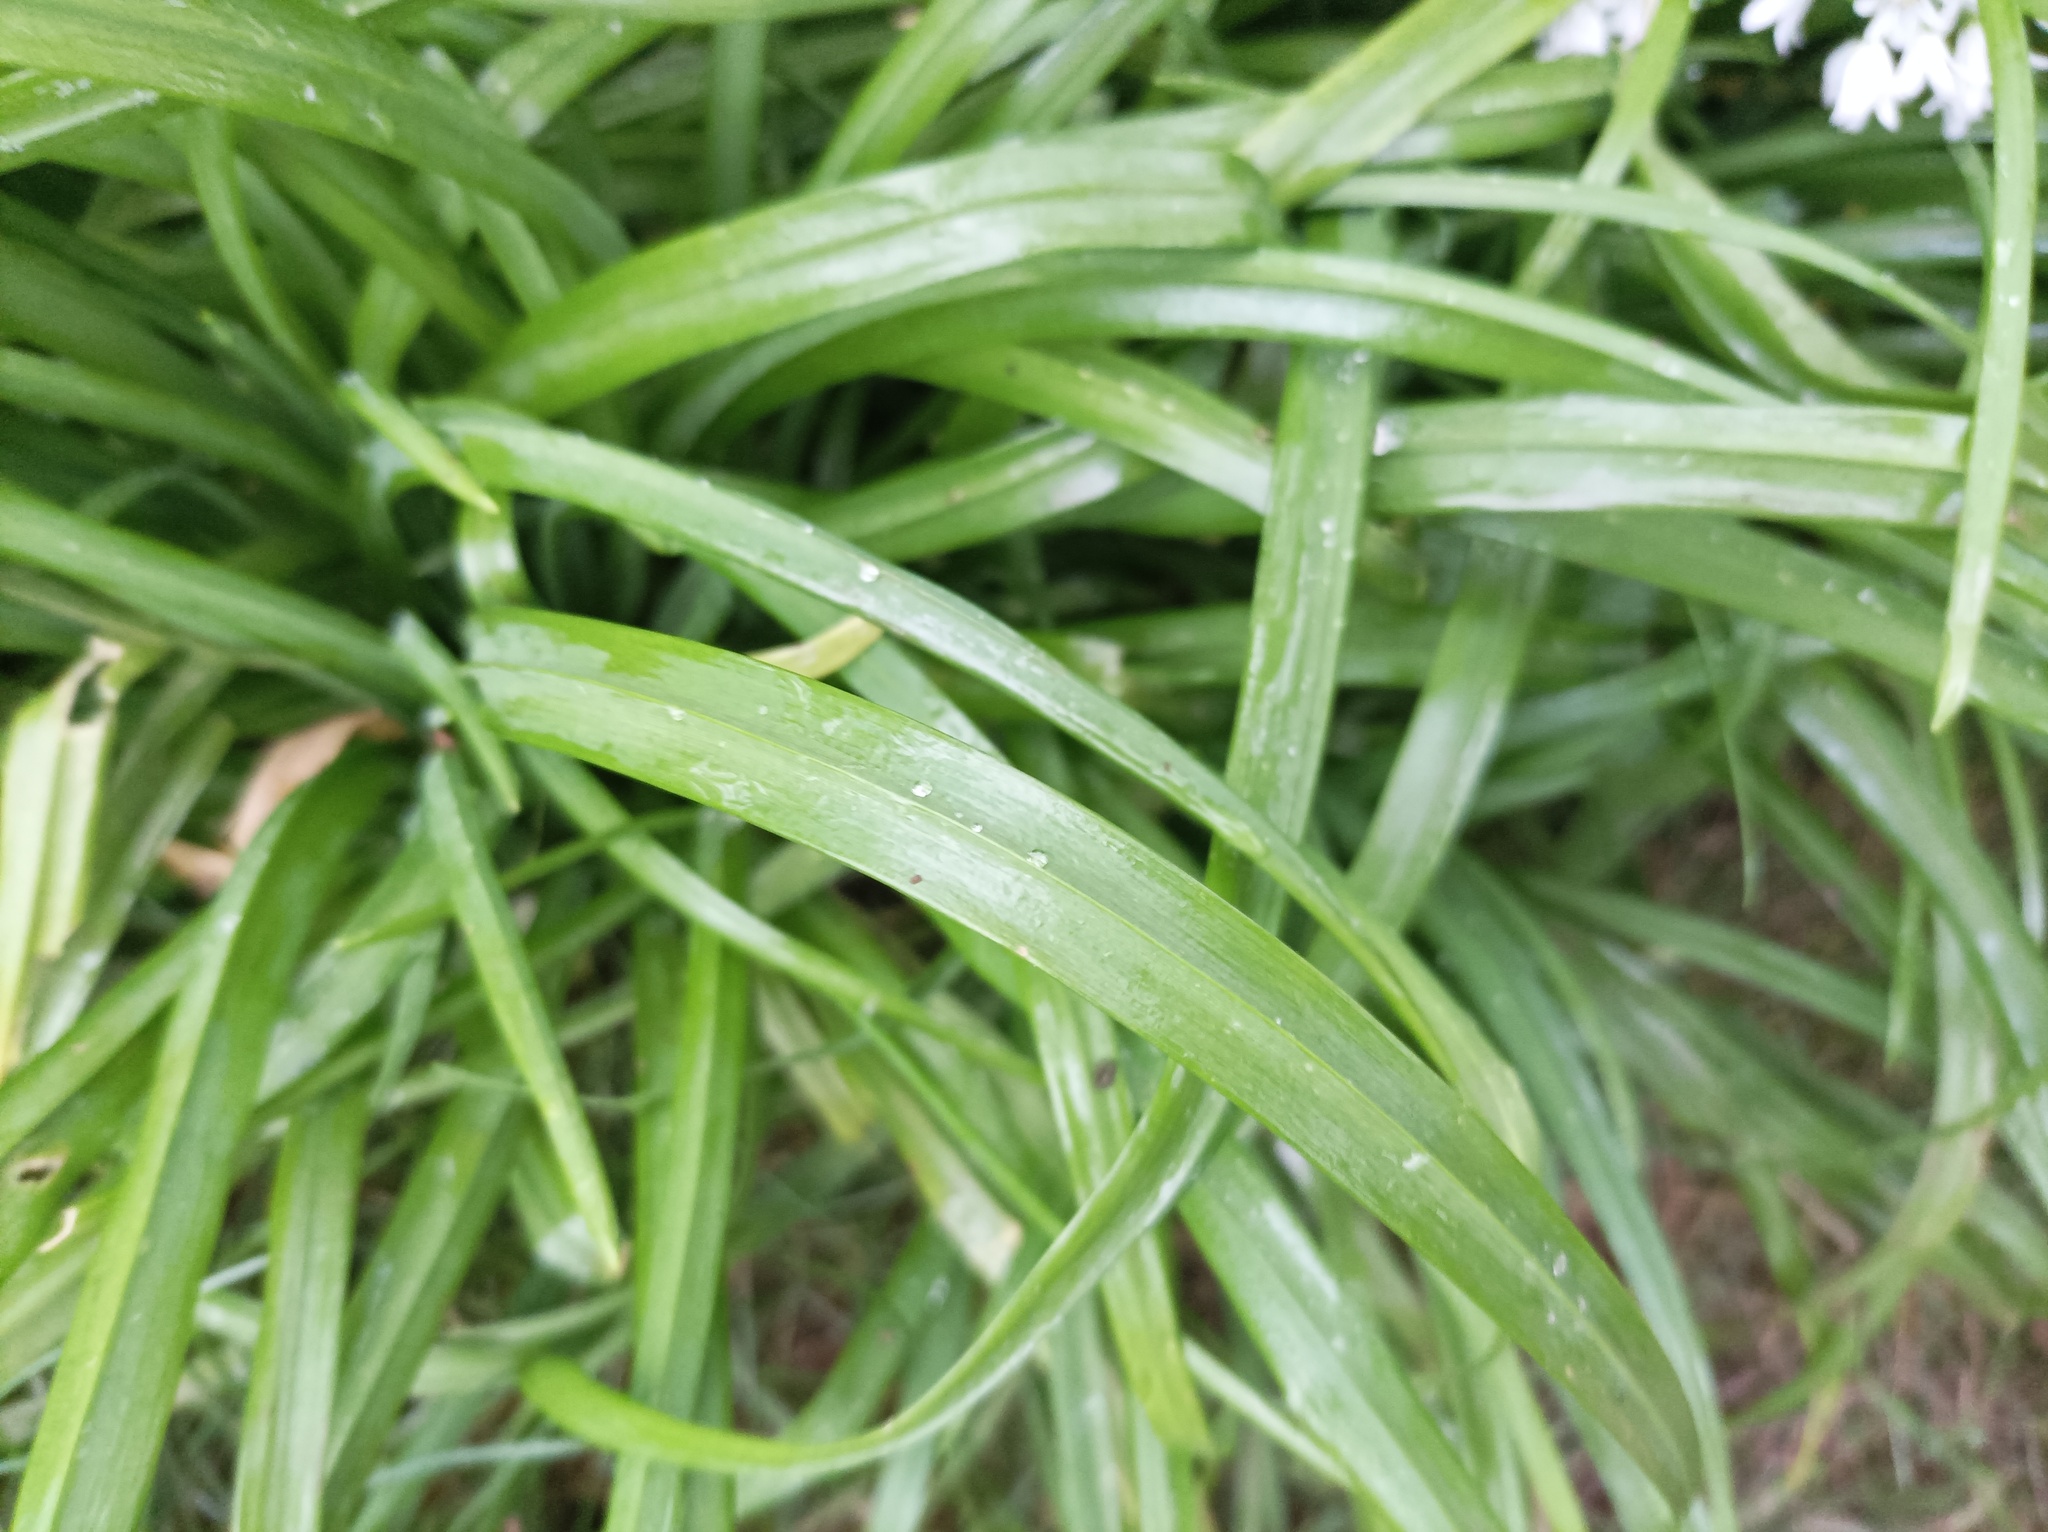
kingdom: Plantae
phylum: Tracheophyta
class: Liliopsida
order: Asparagales
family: Amaryllidaceae
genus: Allium
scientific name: Allium triquetrum
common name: Three-cornered garlic
